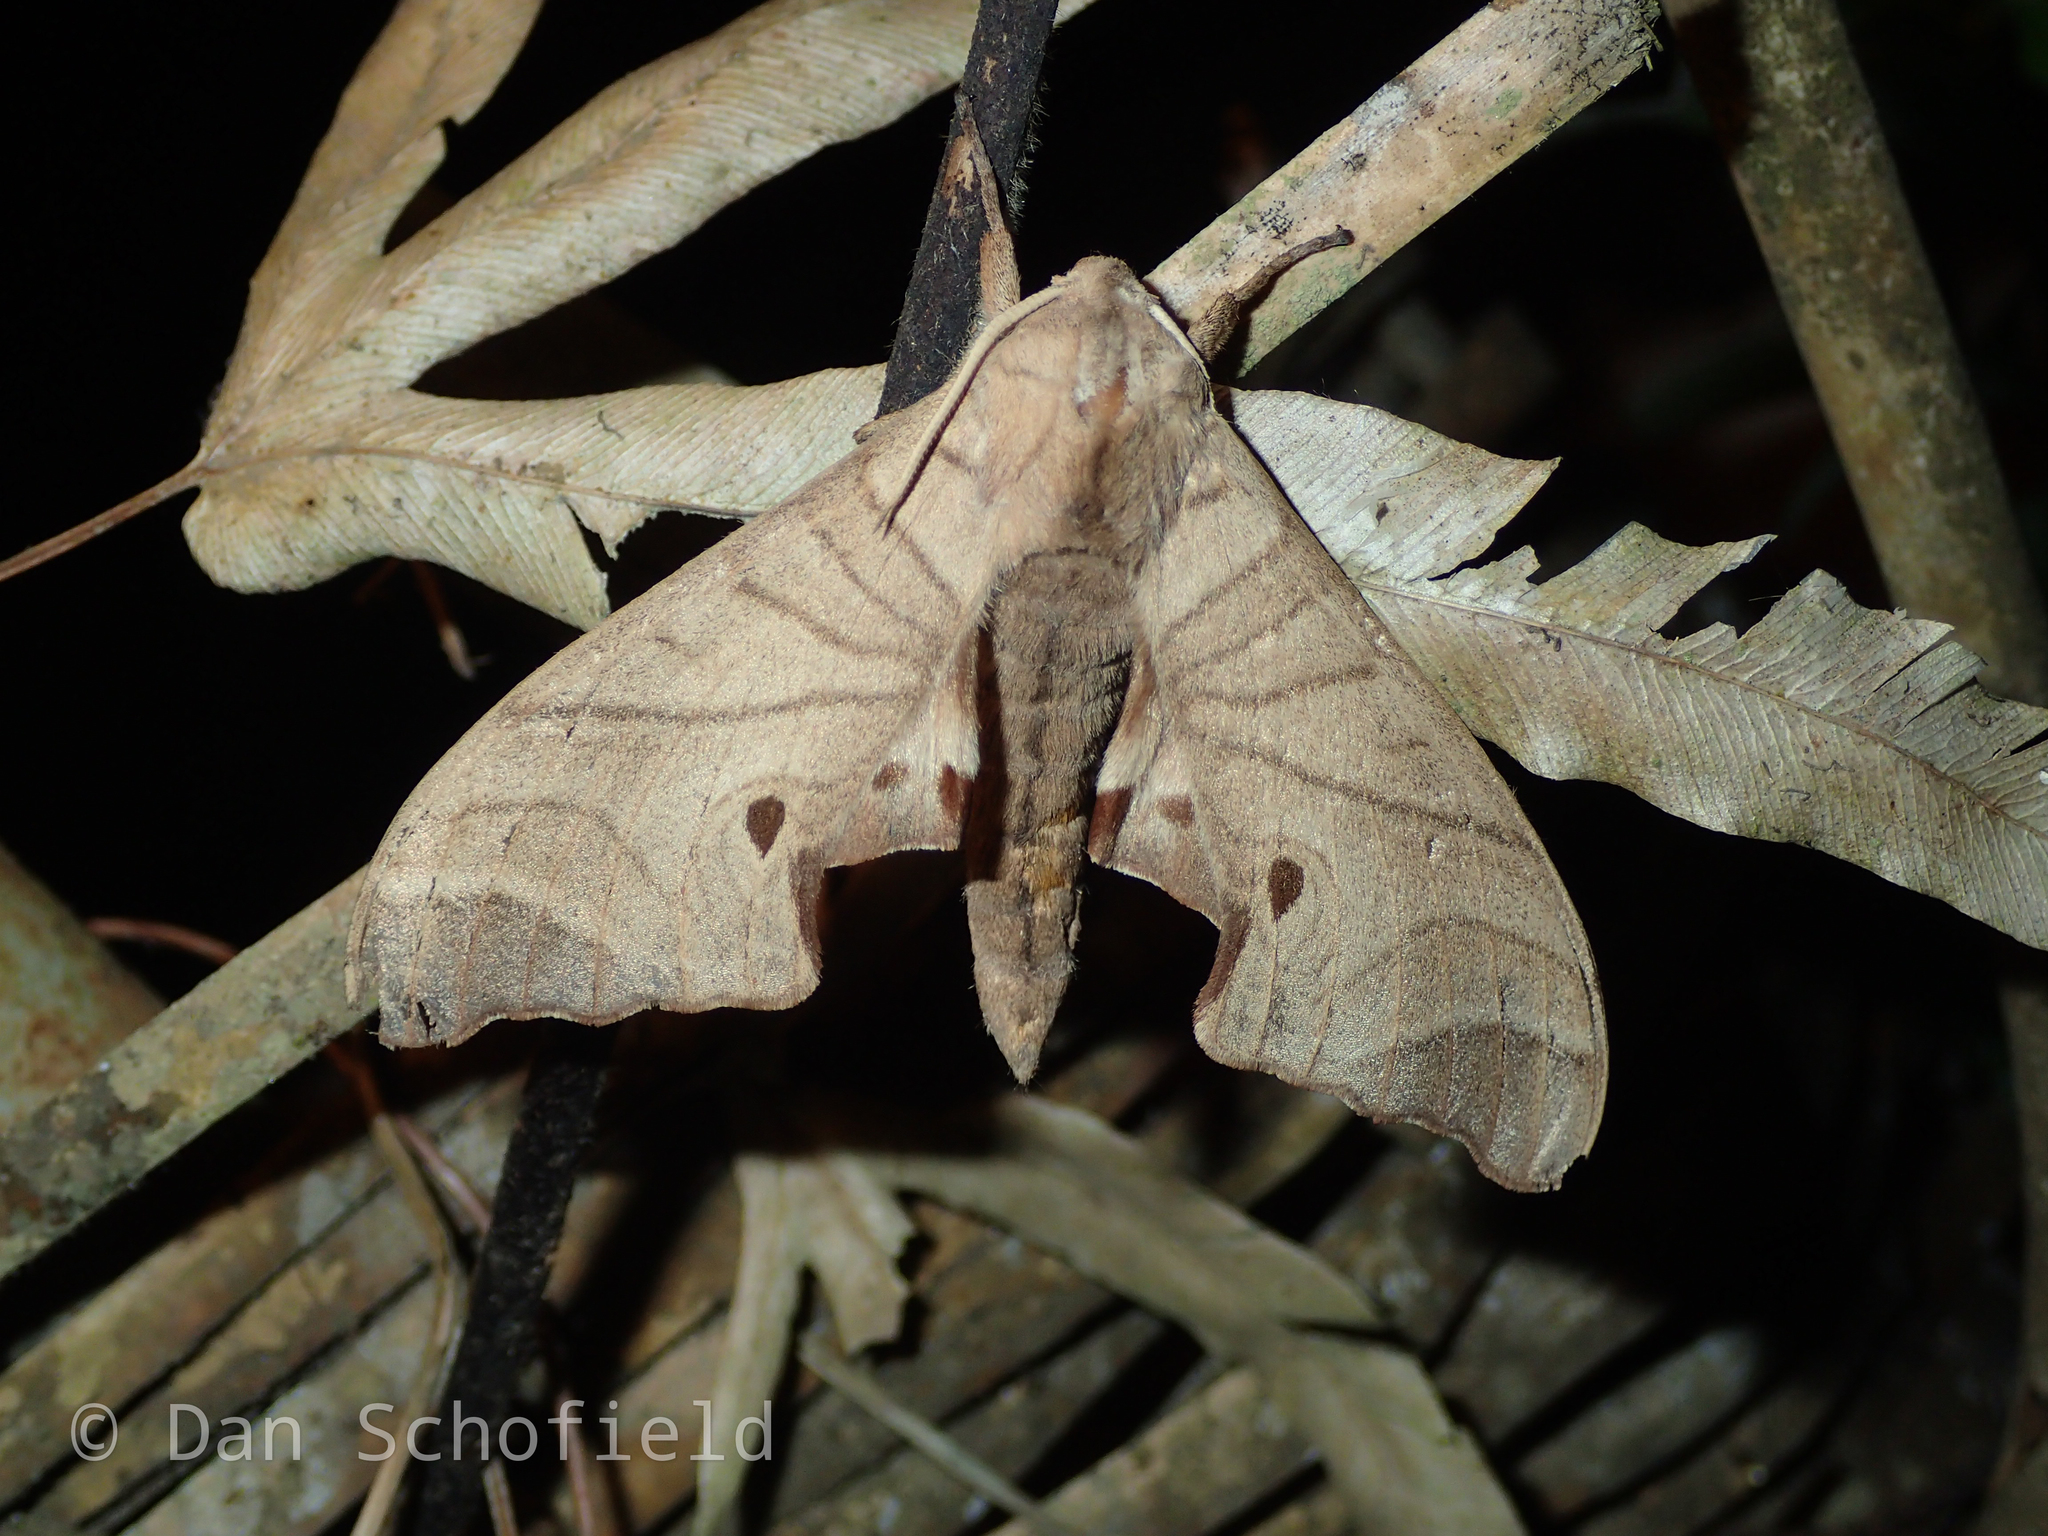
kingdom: Animalia
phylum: Arthropoda
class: Insecta
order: Lepidoptera
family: Sphingidae
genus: Marumba
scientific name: Marumba dyras
